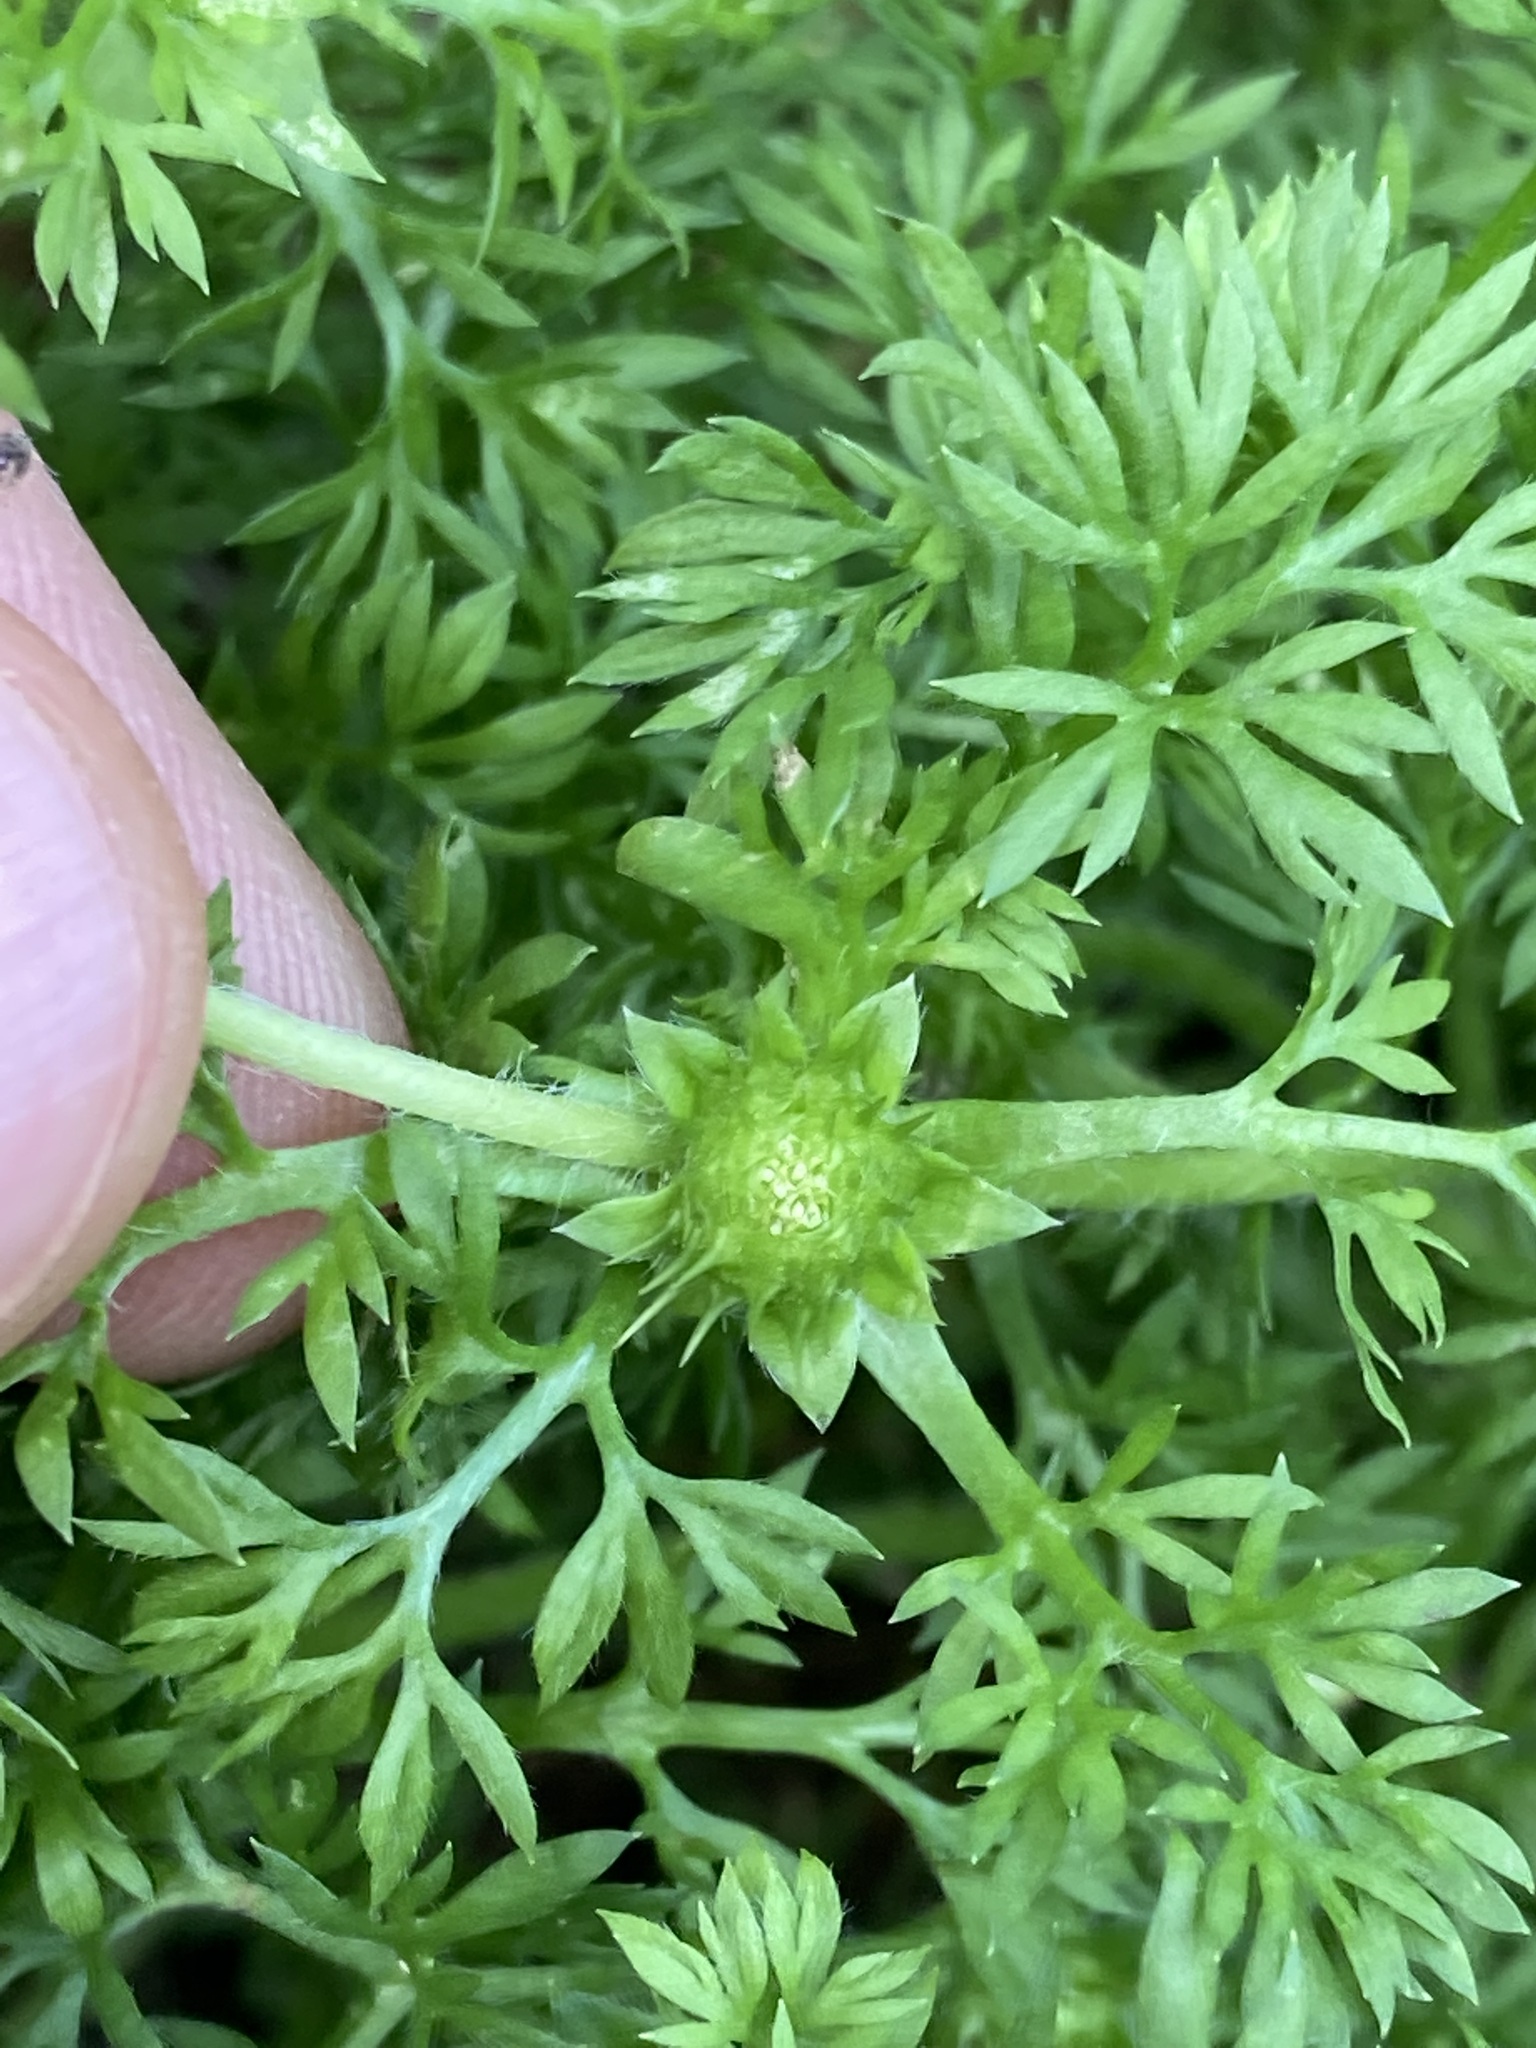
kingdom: Plantae
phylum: Tracheophyta
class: Magnoliopsida
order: Asterales
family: Asteraceae
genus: Soliva
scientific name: Soliva sessilis
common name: Field burrweed
